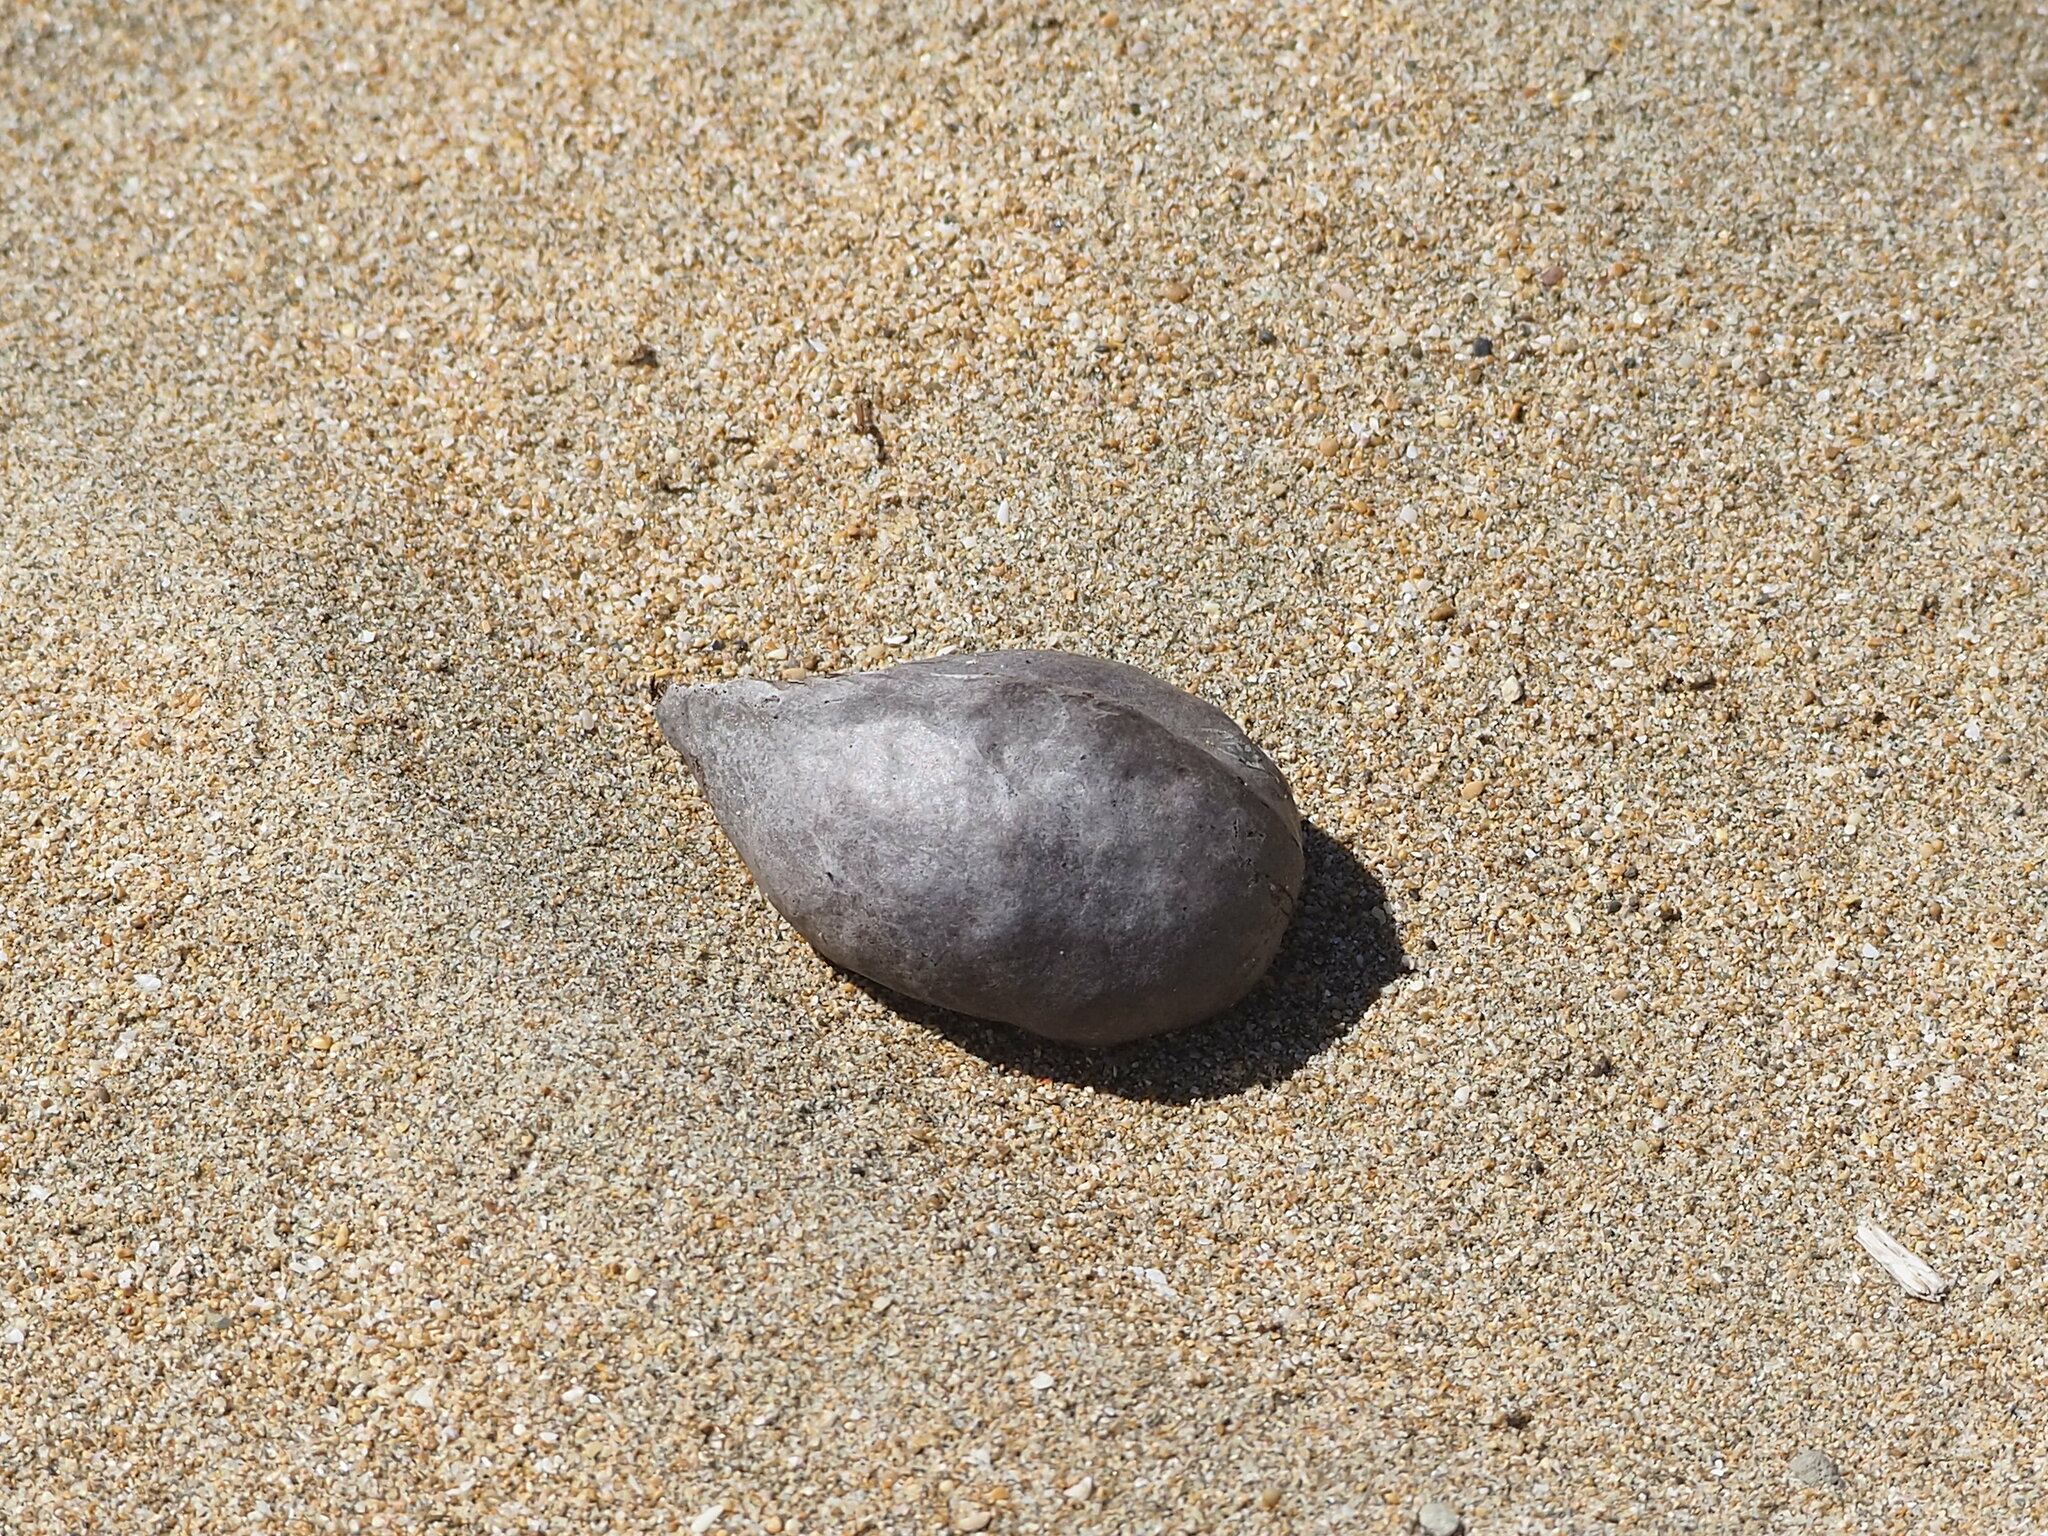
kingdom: Plantae
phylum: Tracheophyta
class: Magnoliopsida
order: Malvales
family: Malvaceae
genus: Heritiera
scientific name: Heritiera littoralis
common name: Looking-glass mangrove
